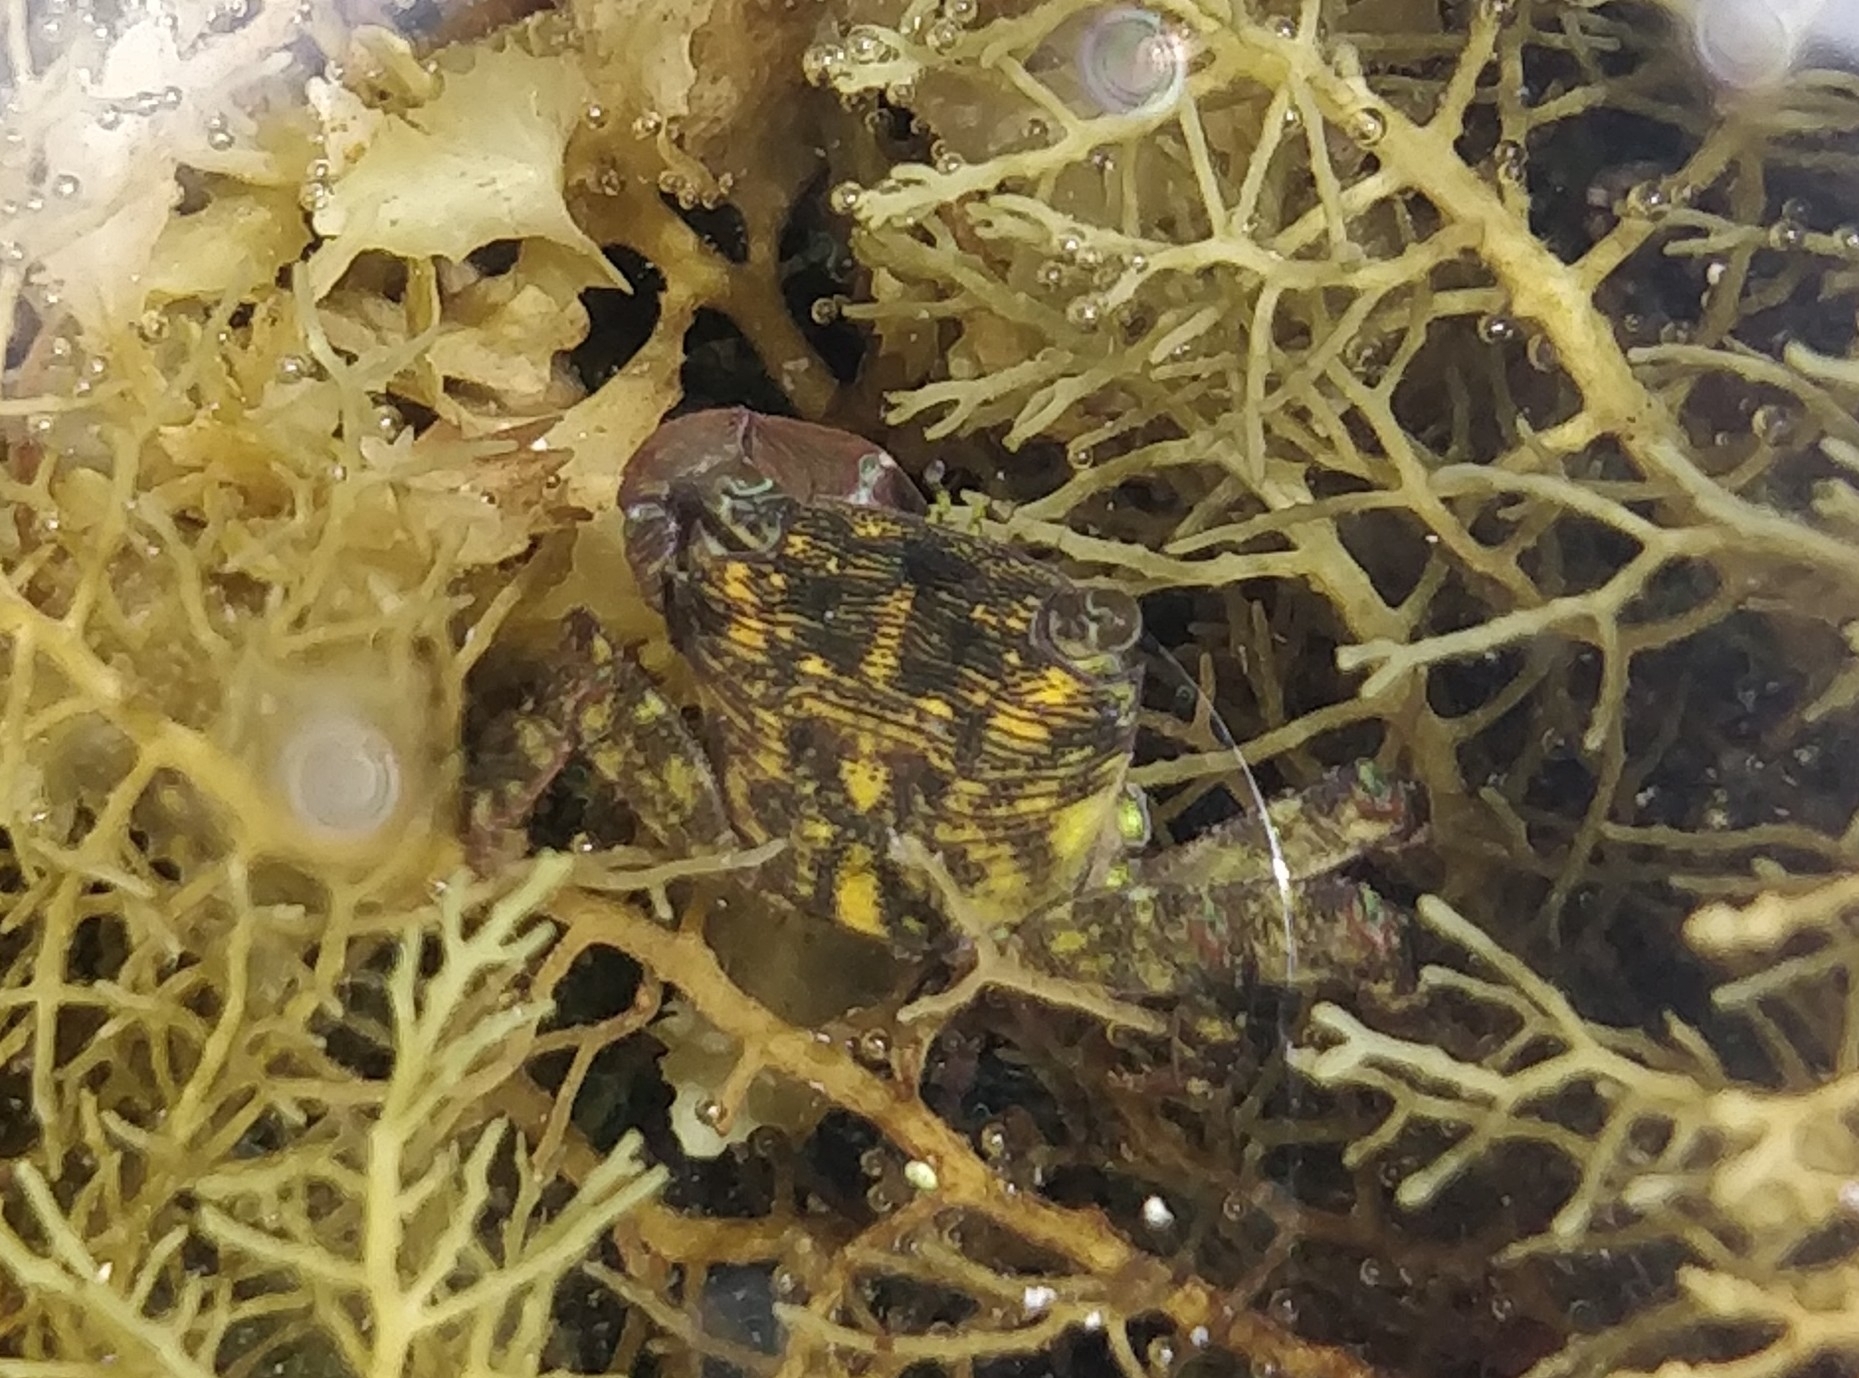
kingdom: Animalia
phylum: Arthropoda
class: Malacostraca
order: Decapoda
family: Grapsidae
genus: Pachygrapsus
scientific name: Pachygrapsus transversus
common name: Mottled shore crab
